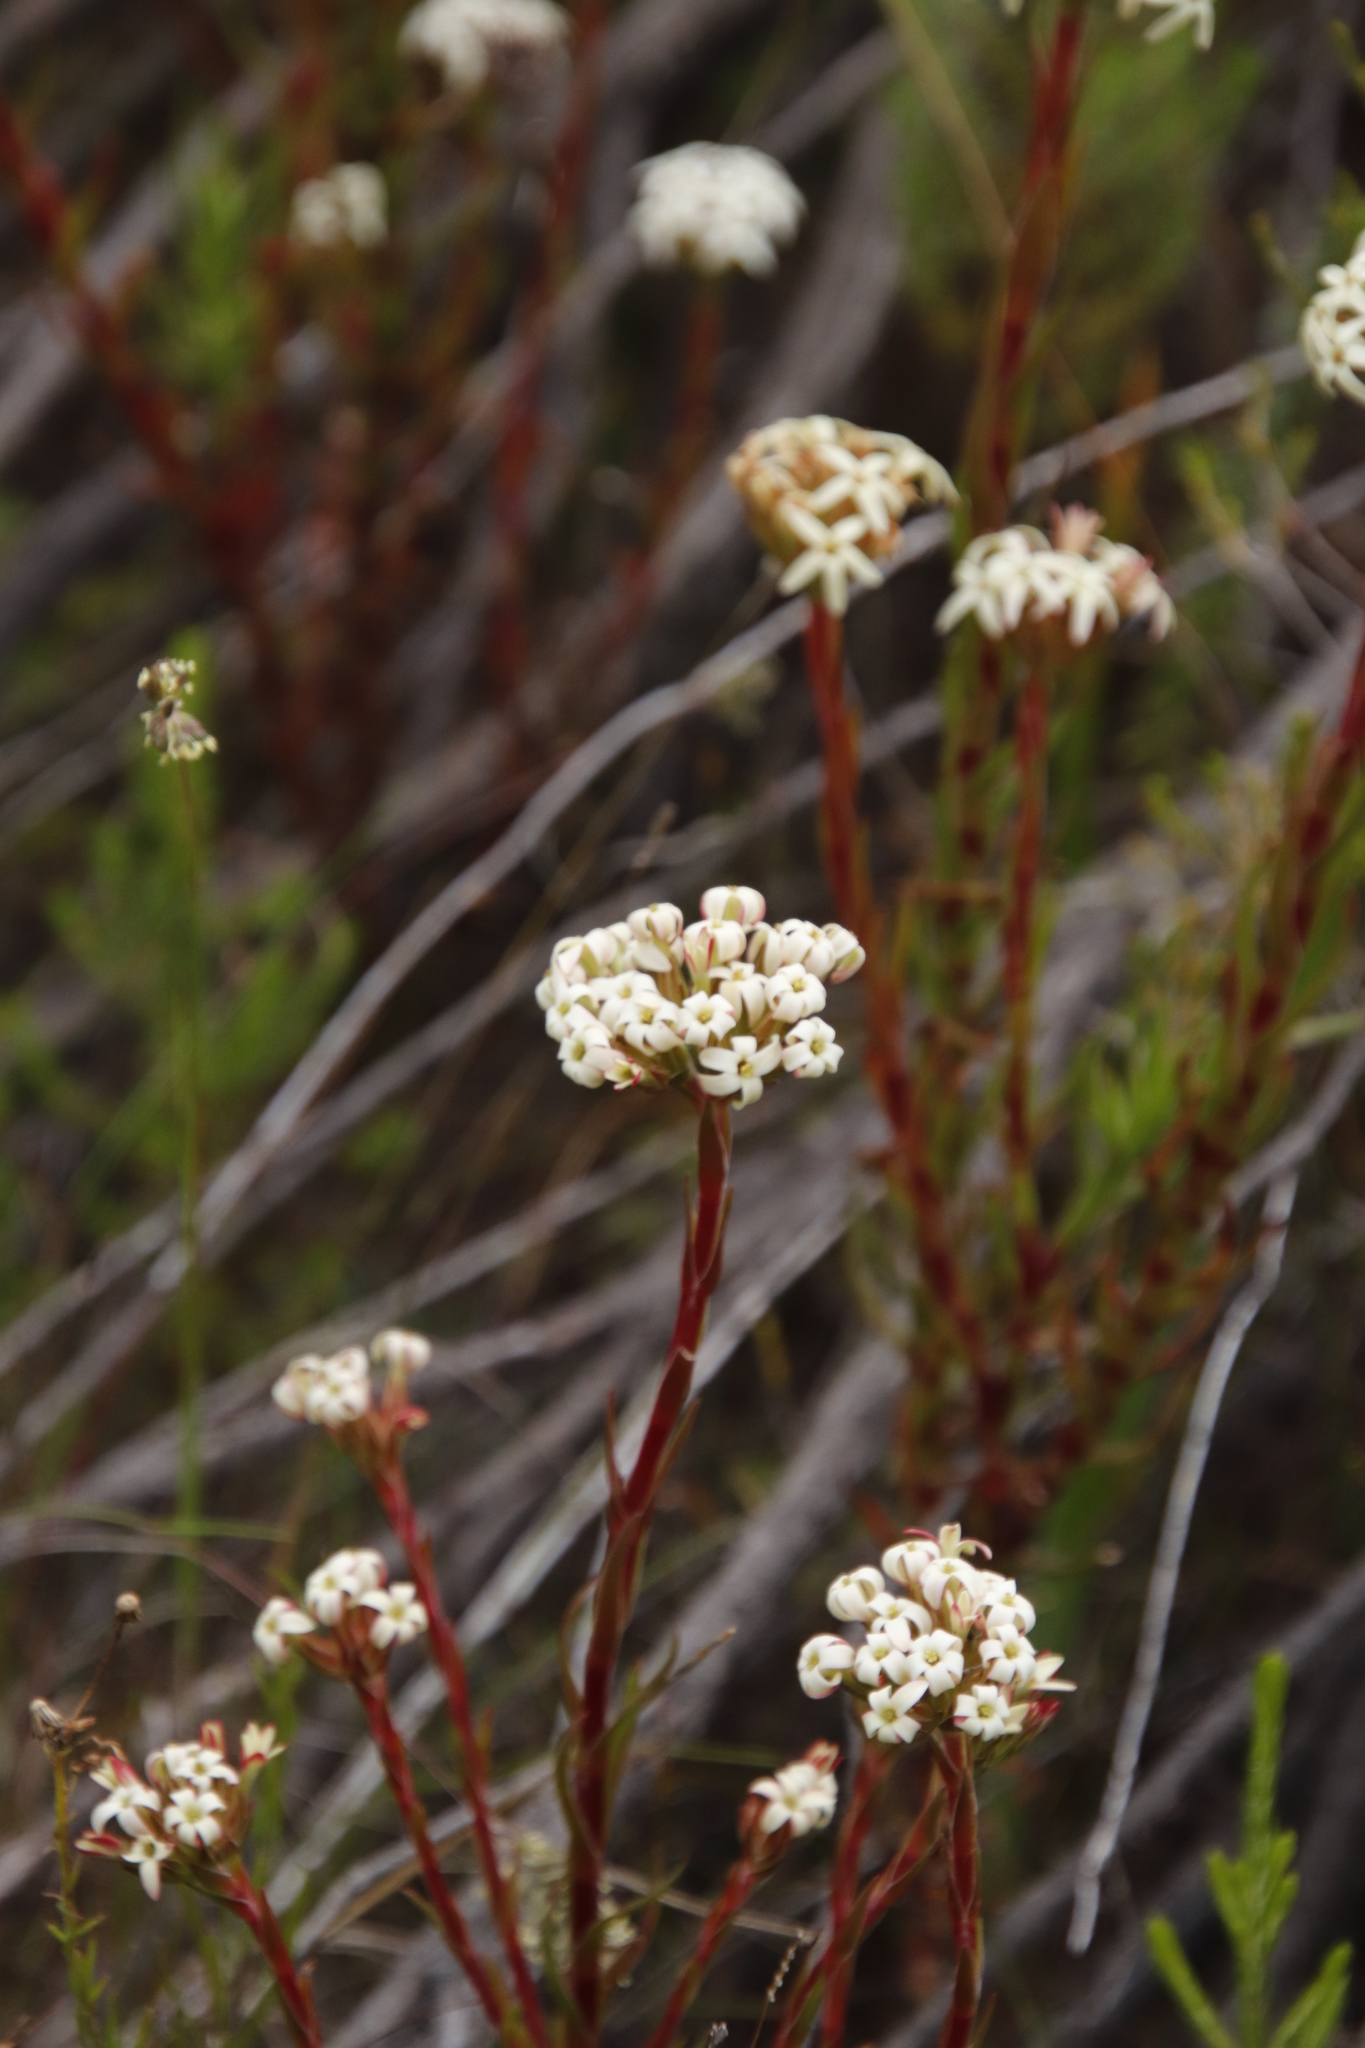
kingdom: Plantae
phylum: Tracheophyta
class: Magnoliopsida
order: Saxifragales
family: Crassulaceae
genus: Crassula
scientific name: Crassula fascicularis
